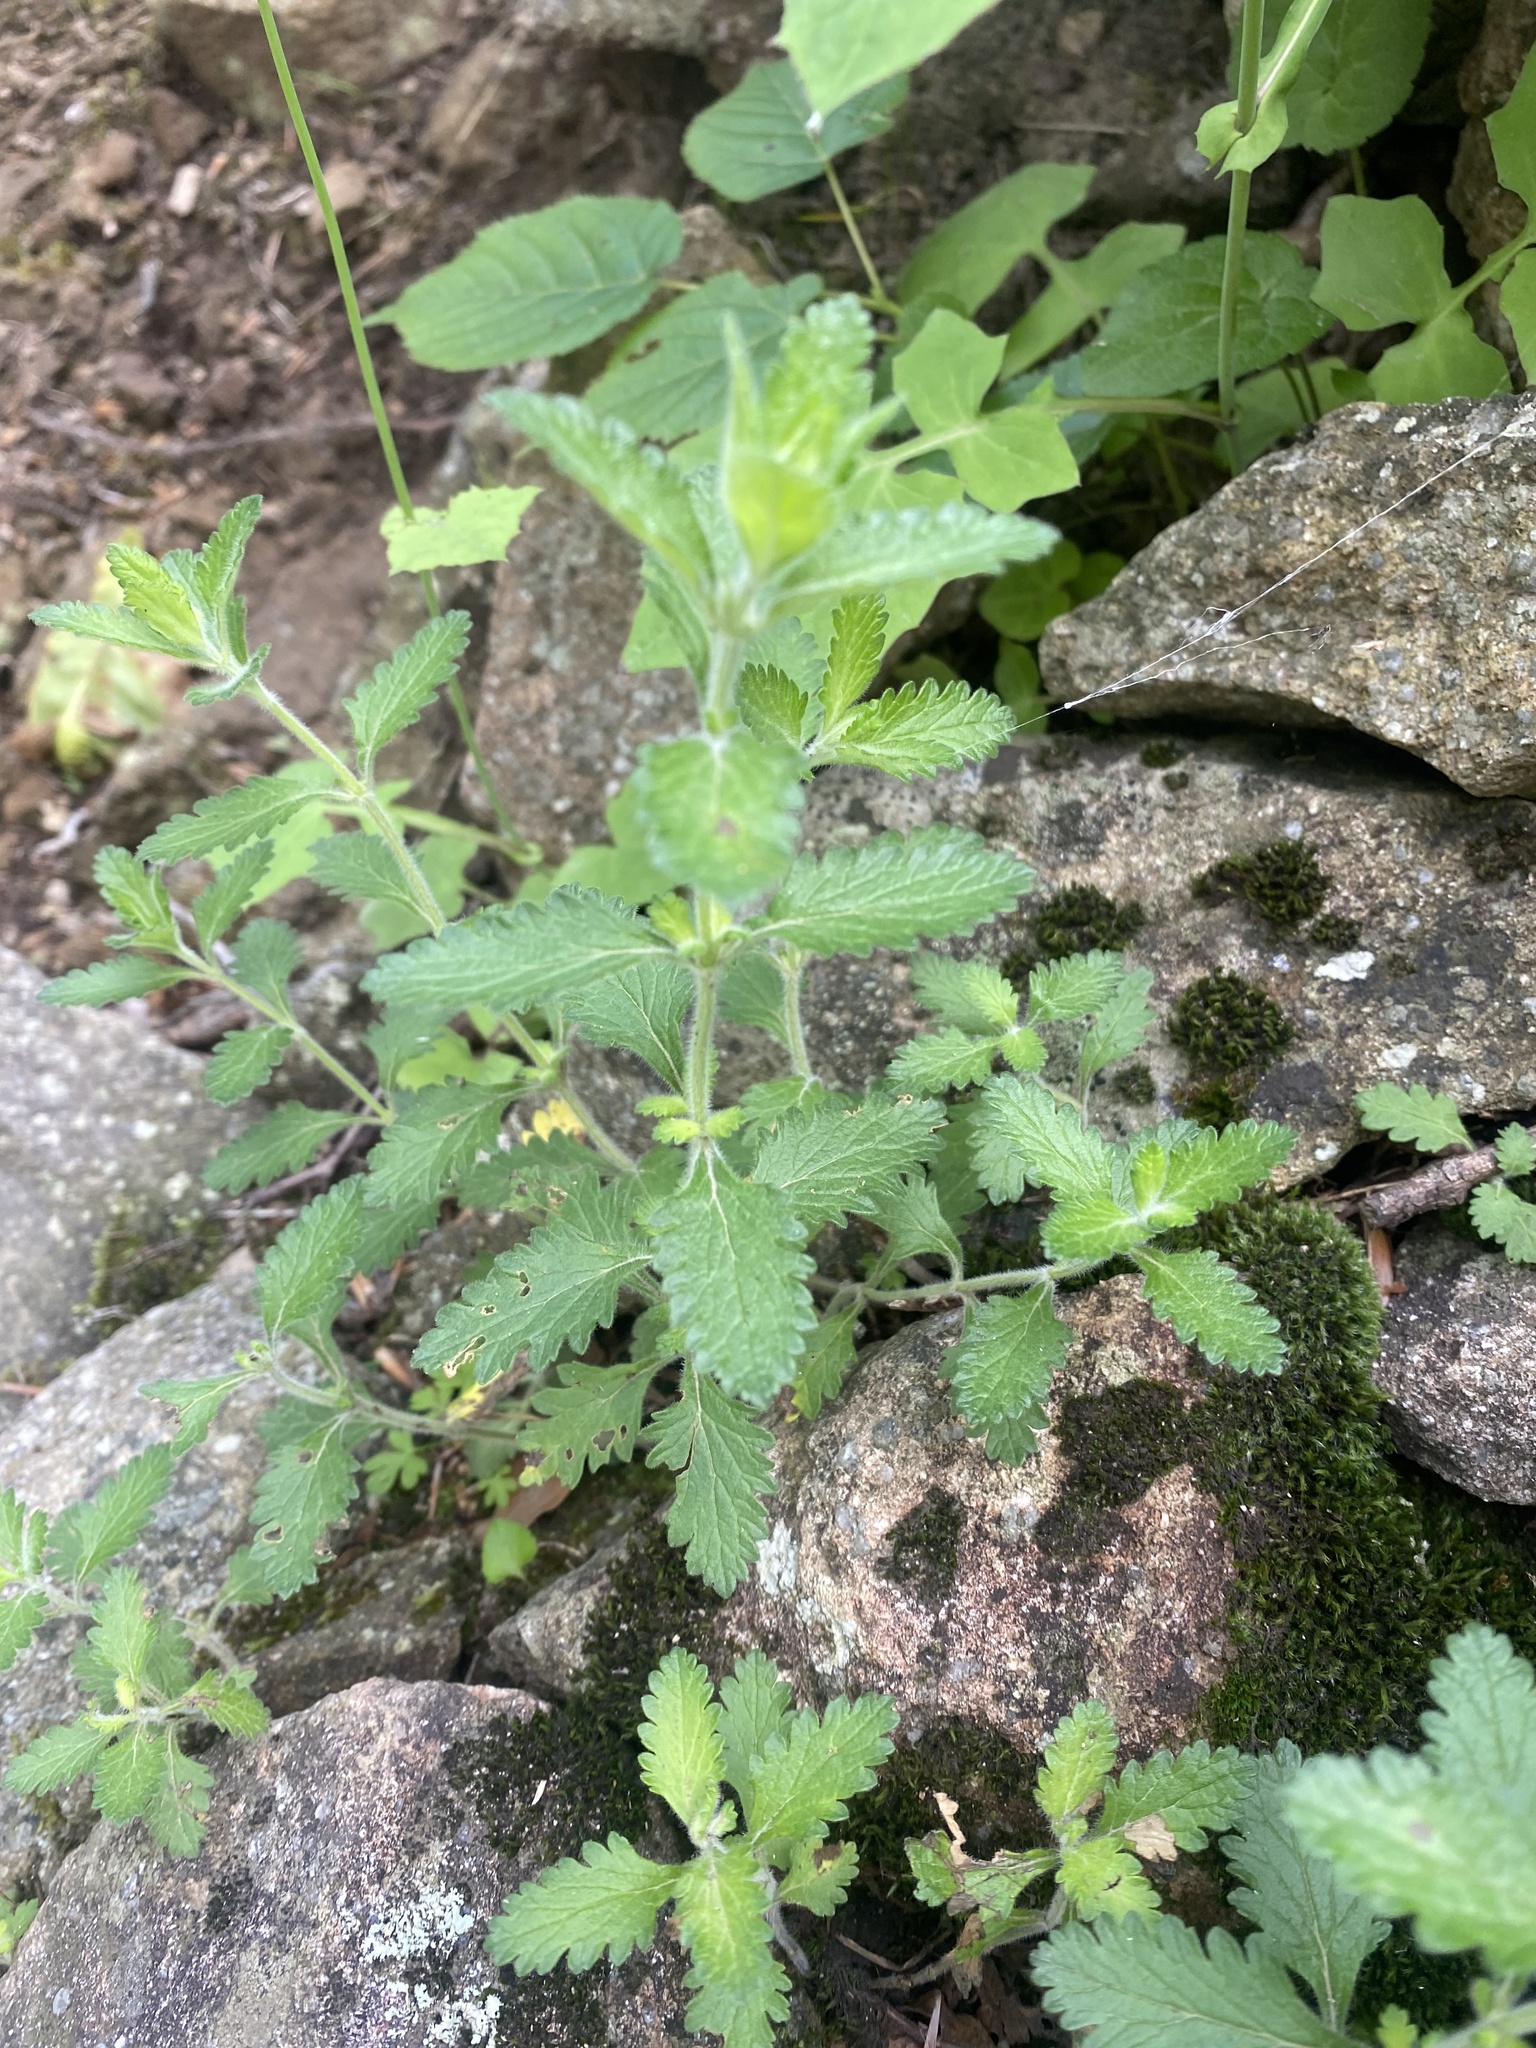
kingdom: Plantae
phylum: Tracheophyta
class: Magnoliopsida
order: Lamiales
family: Lamiaceae
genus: Teucrium
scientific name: Teucrium chamaedrys
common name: Wall germander
